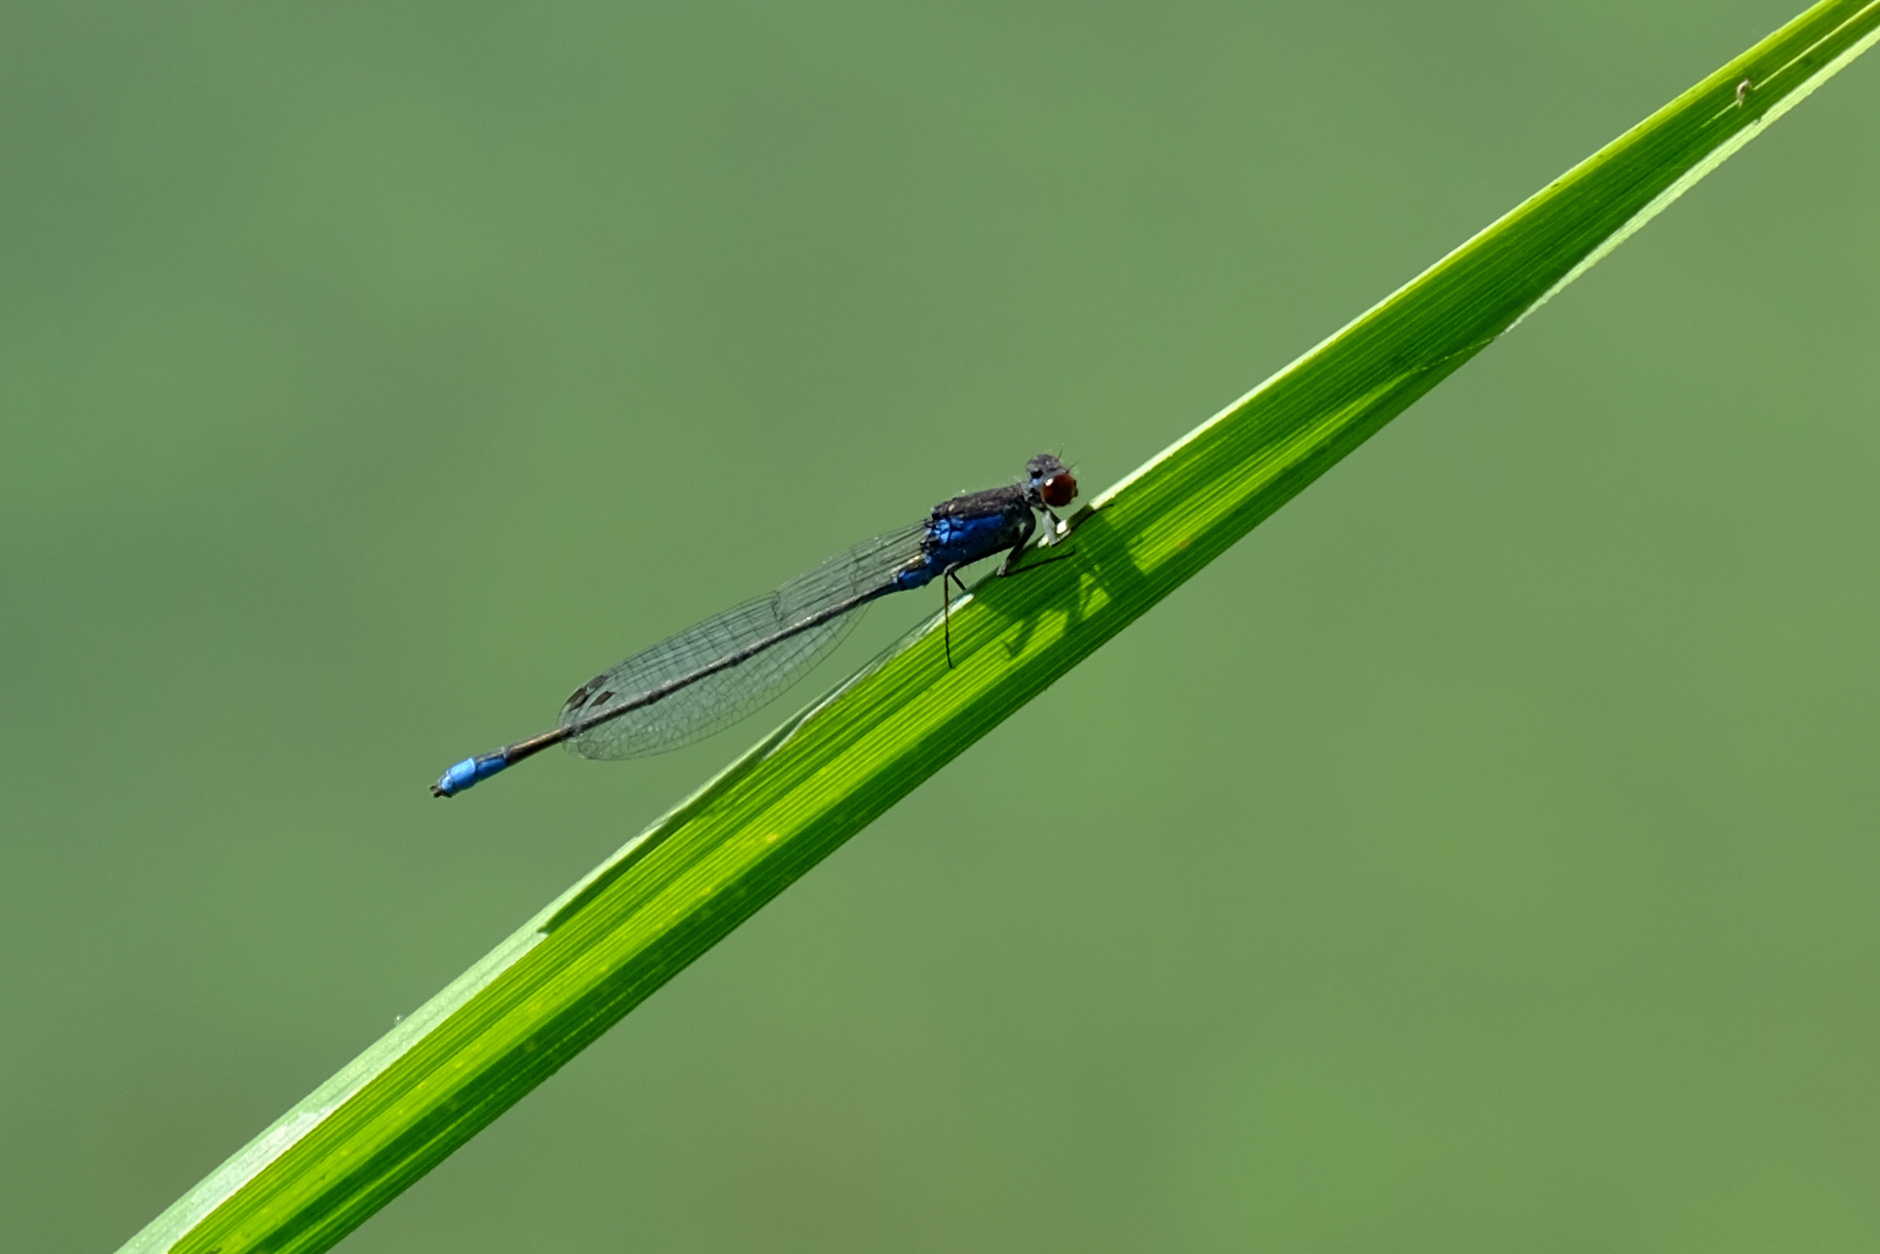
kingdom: Animalia
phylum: Arthropoda
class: Insecta
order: Odonata
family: Coenagrionidae
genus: Erythromma
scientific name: Erythromma viridulum
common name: Small red-eyed damselfly
